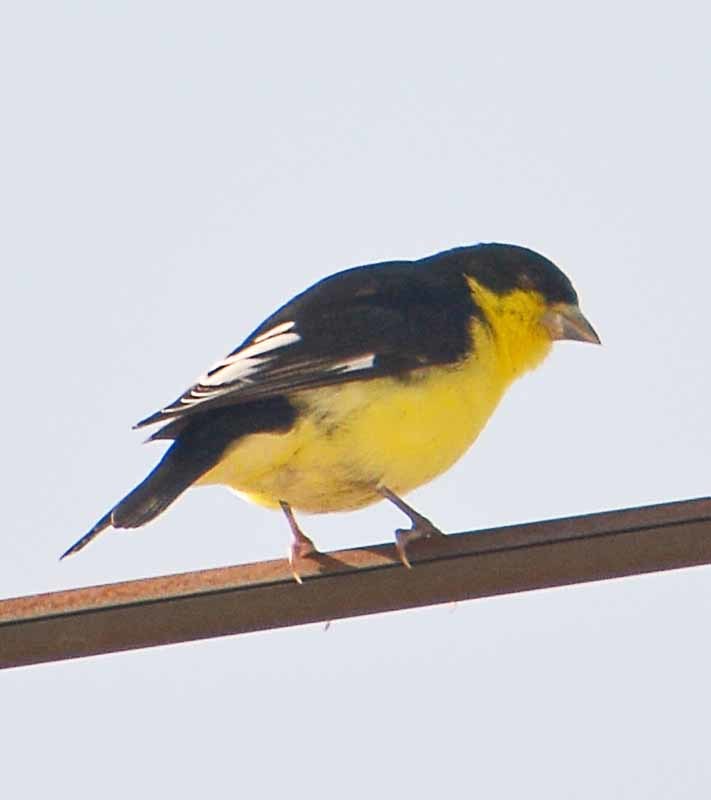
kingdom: Animalia
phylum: Chordata
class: Aves
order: Passeriformes
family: Fringillidae
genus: Spinus
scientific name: Spinus psaltria
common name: Lesser goldfinch
